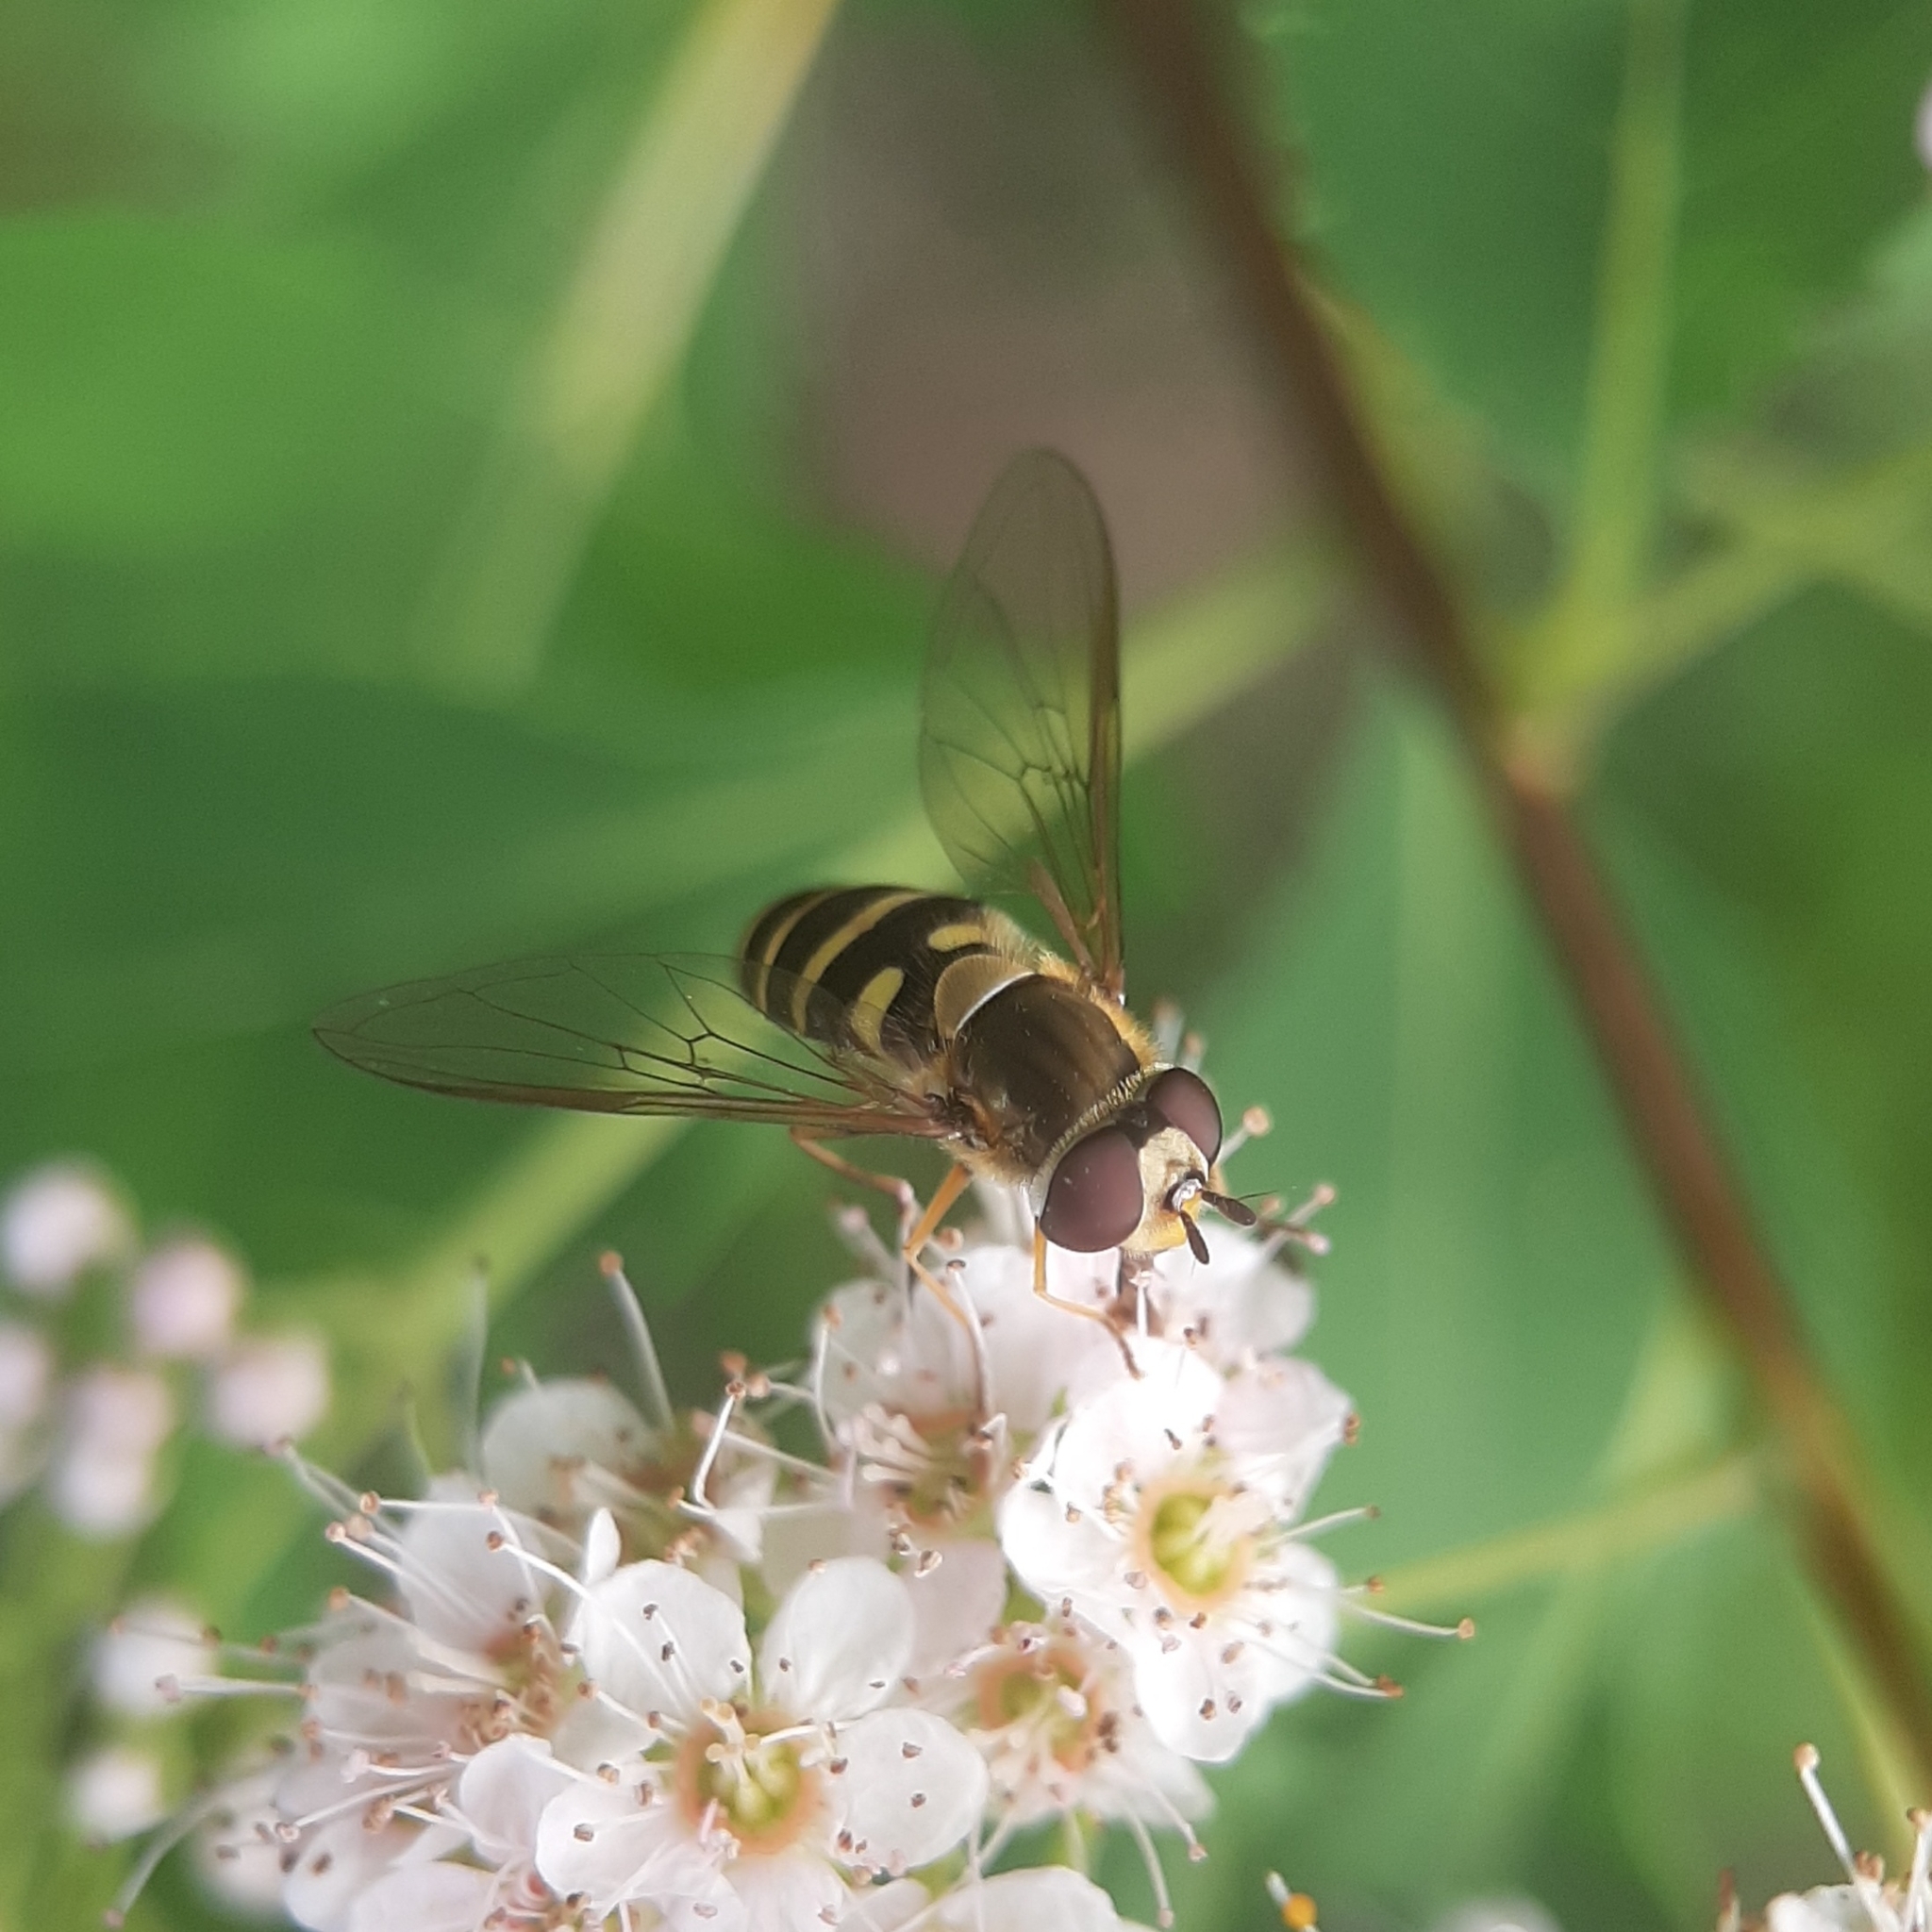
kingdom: Animalia
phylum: Arthropoda
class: Insecta
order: Diptera
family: Syrphidae
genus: Syrphus
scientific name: Syrphus ribesii
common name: Common flower fly
